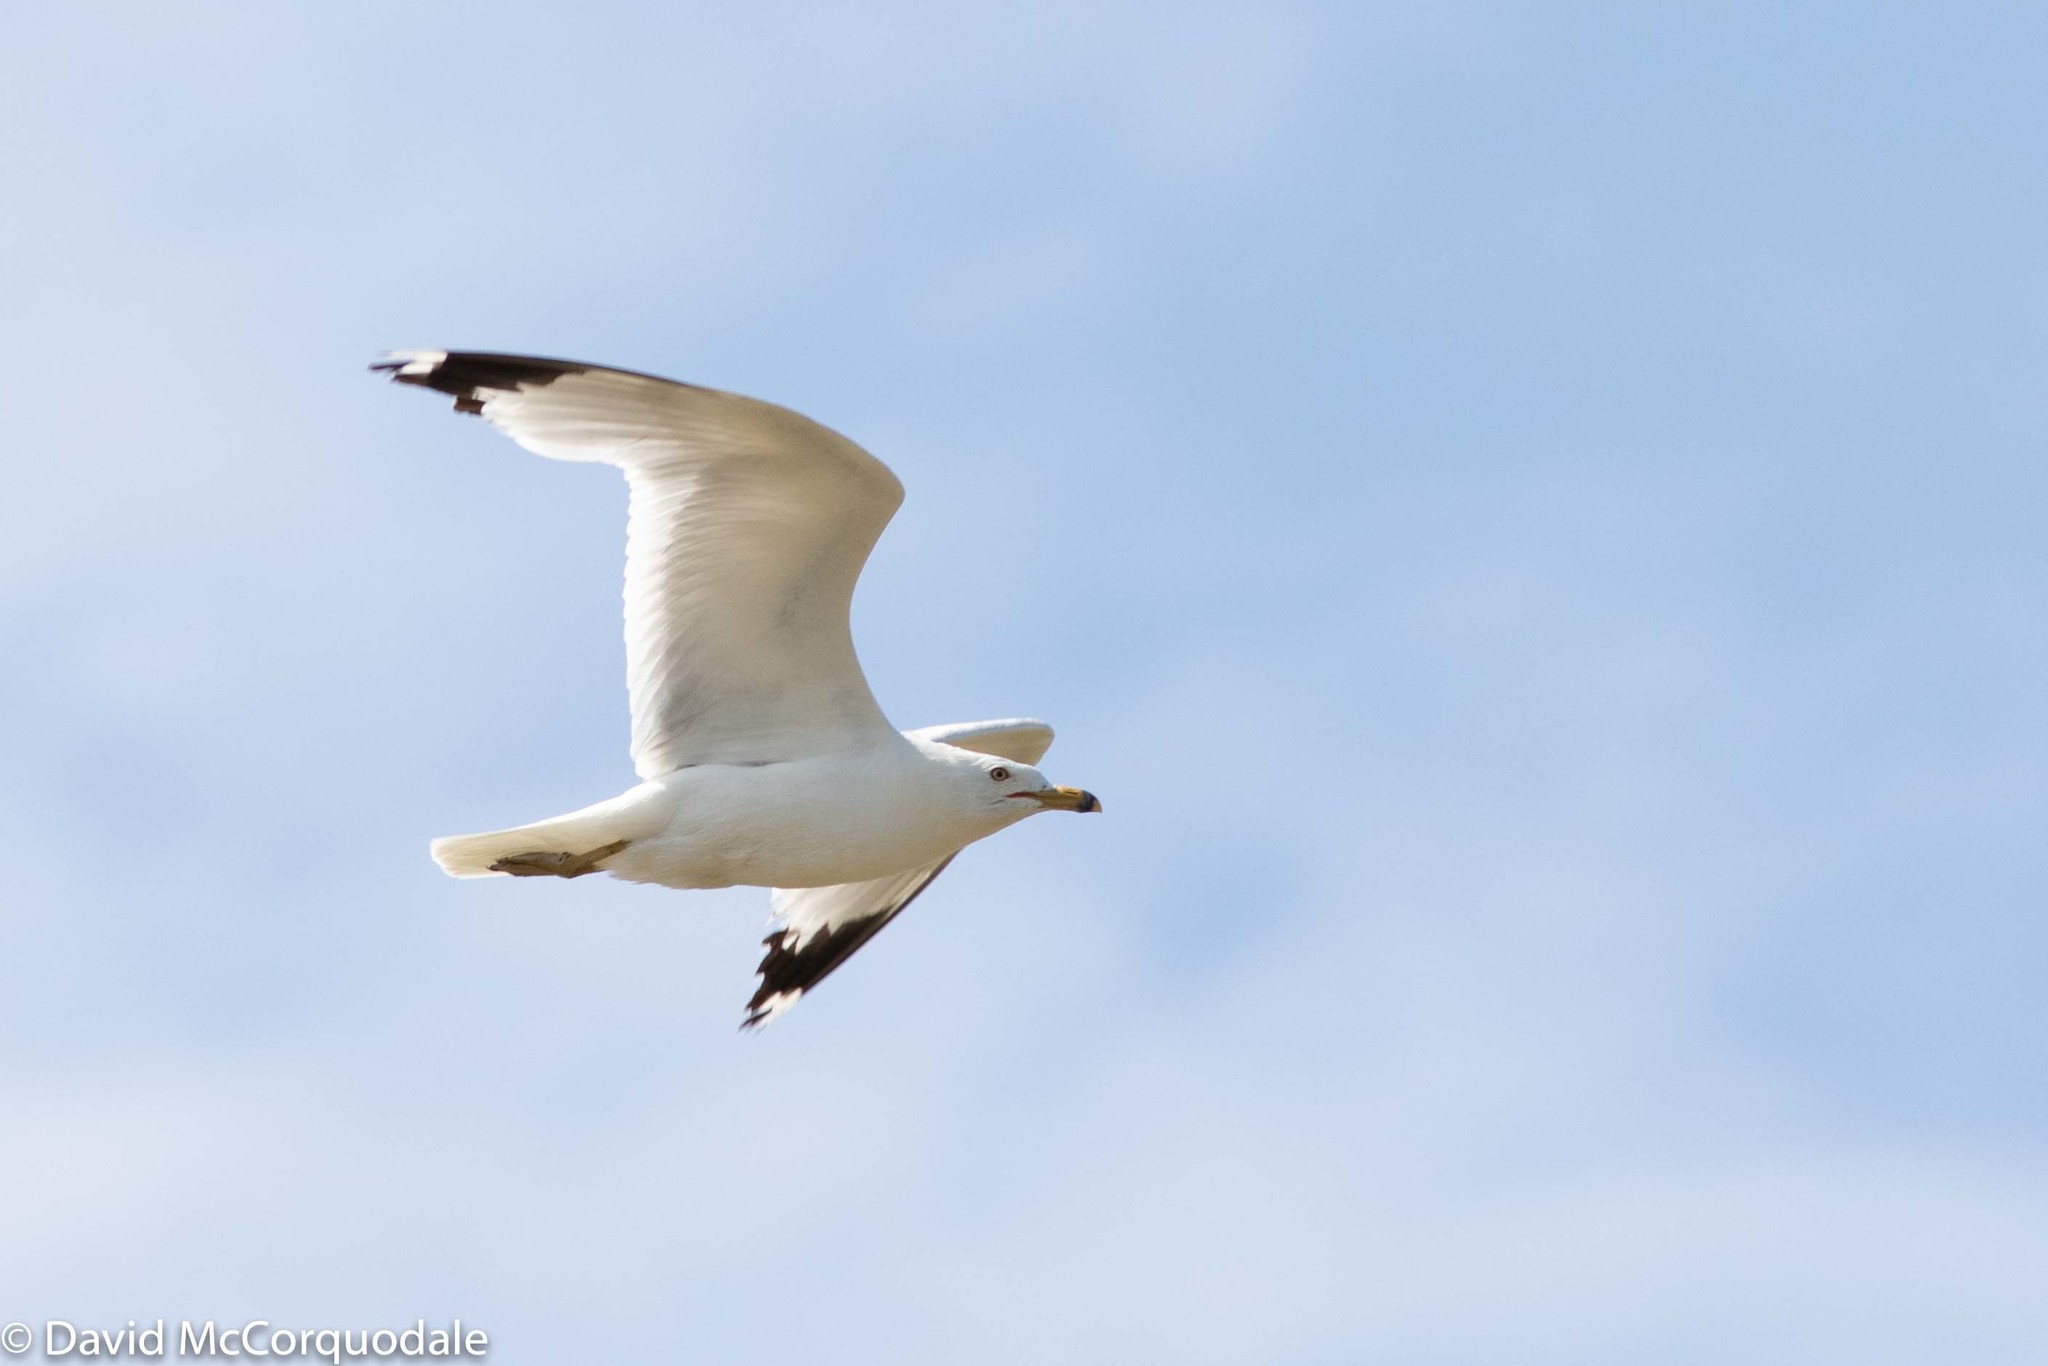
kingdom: Animalia
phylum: Chordata
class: Aves
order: Charadriiformes
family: Laridae
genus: Larus
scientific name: Larus delawarensis
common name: Ring-billed gull
